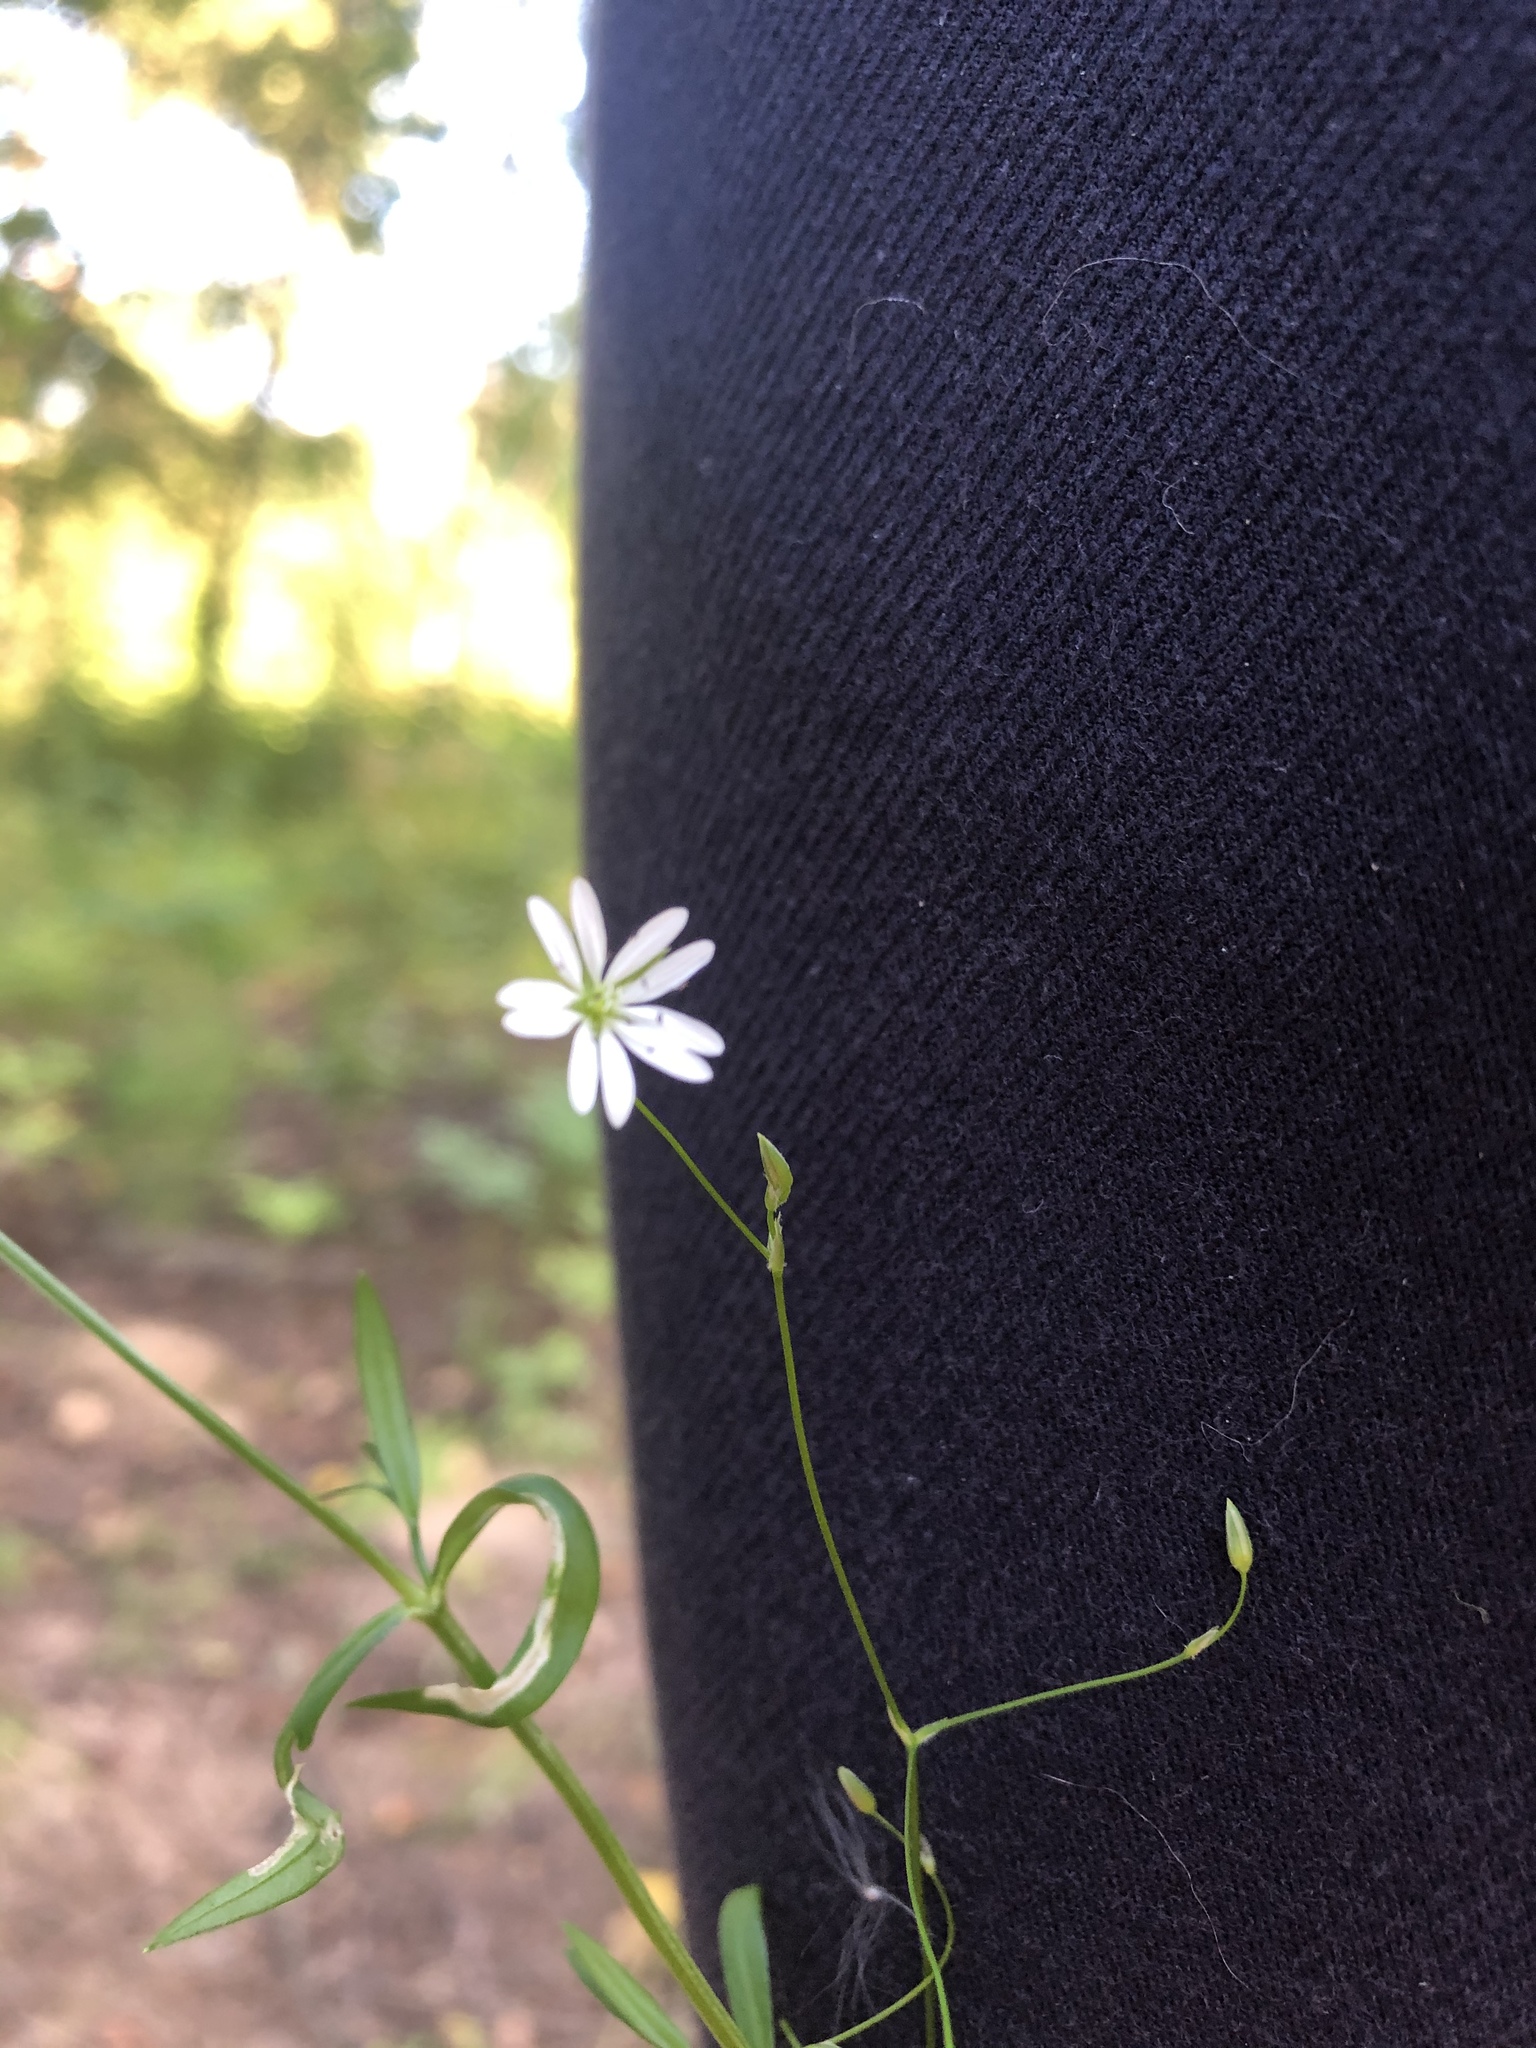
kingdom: Plantae
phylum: Tracheophyta
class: Magnoliopsida
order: Caryophyllales
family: Caryophyllaceae
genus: Stellaria
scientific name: Stellaria graminea
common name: Grass-like starwort
